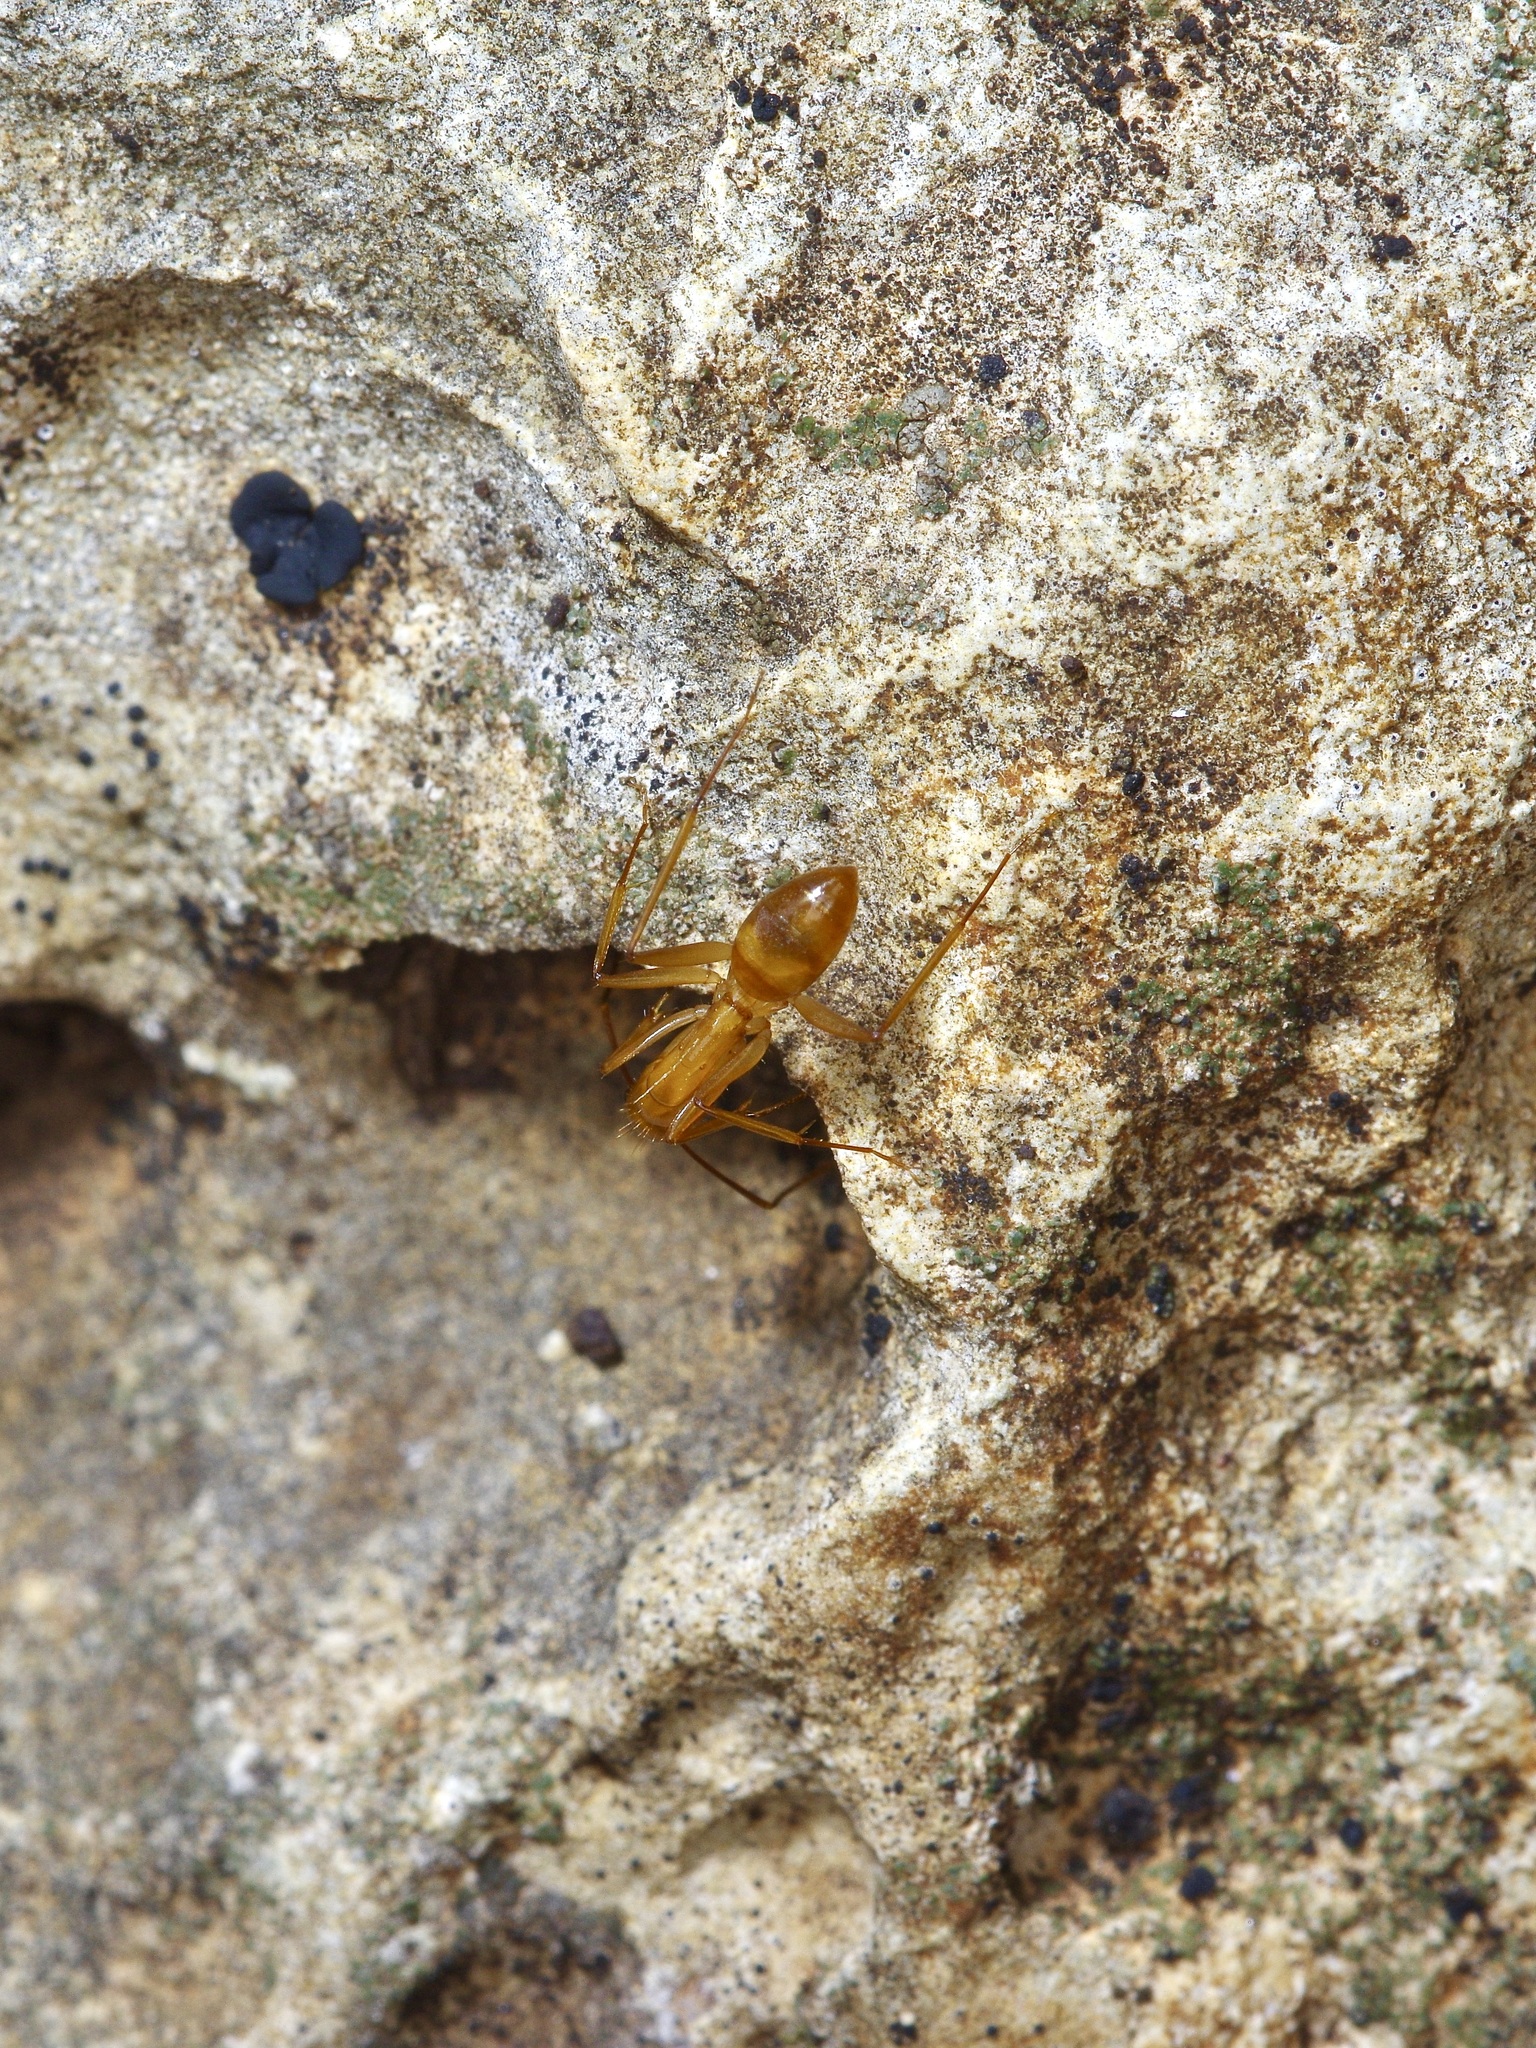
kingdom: Animalia
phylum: Arthropoda
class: Insecta
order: Hymenoptera
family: Formicidae
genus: Camponotus
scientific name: Camponotus festinatus
